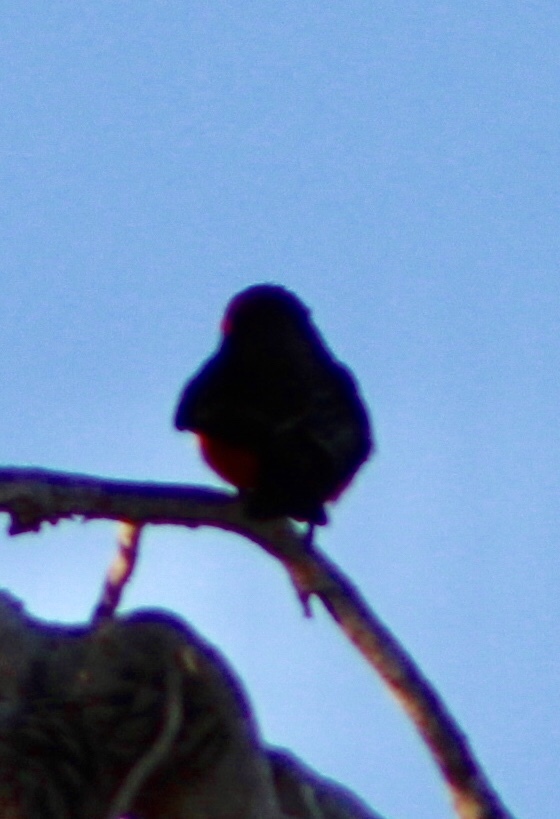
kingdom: Animalia
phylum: Chordata
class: Aves
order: Passeriformes
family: Tyrannidae
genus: Pyrocephalus
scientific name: Pyrocephalus rubinus
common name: Vermilion flycatcher
